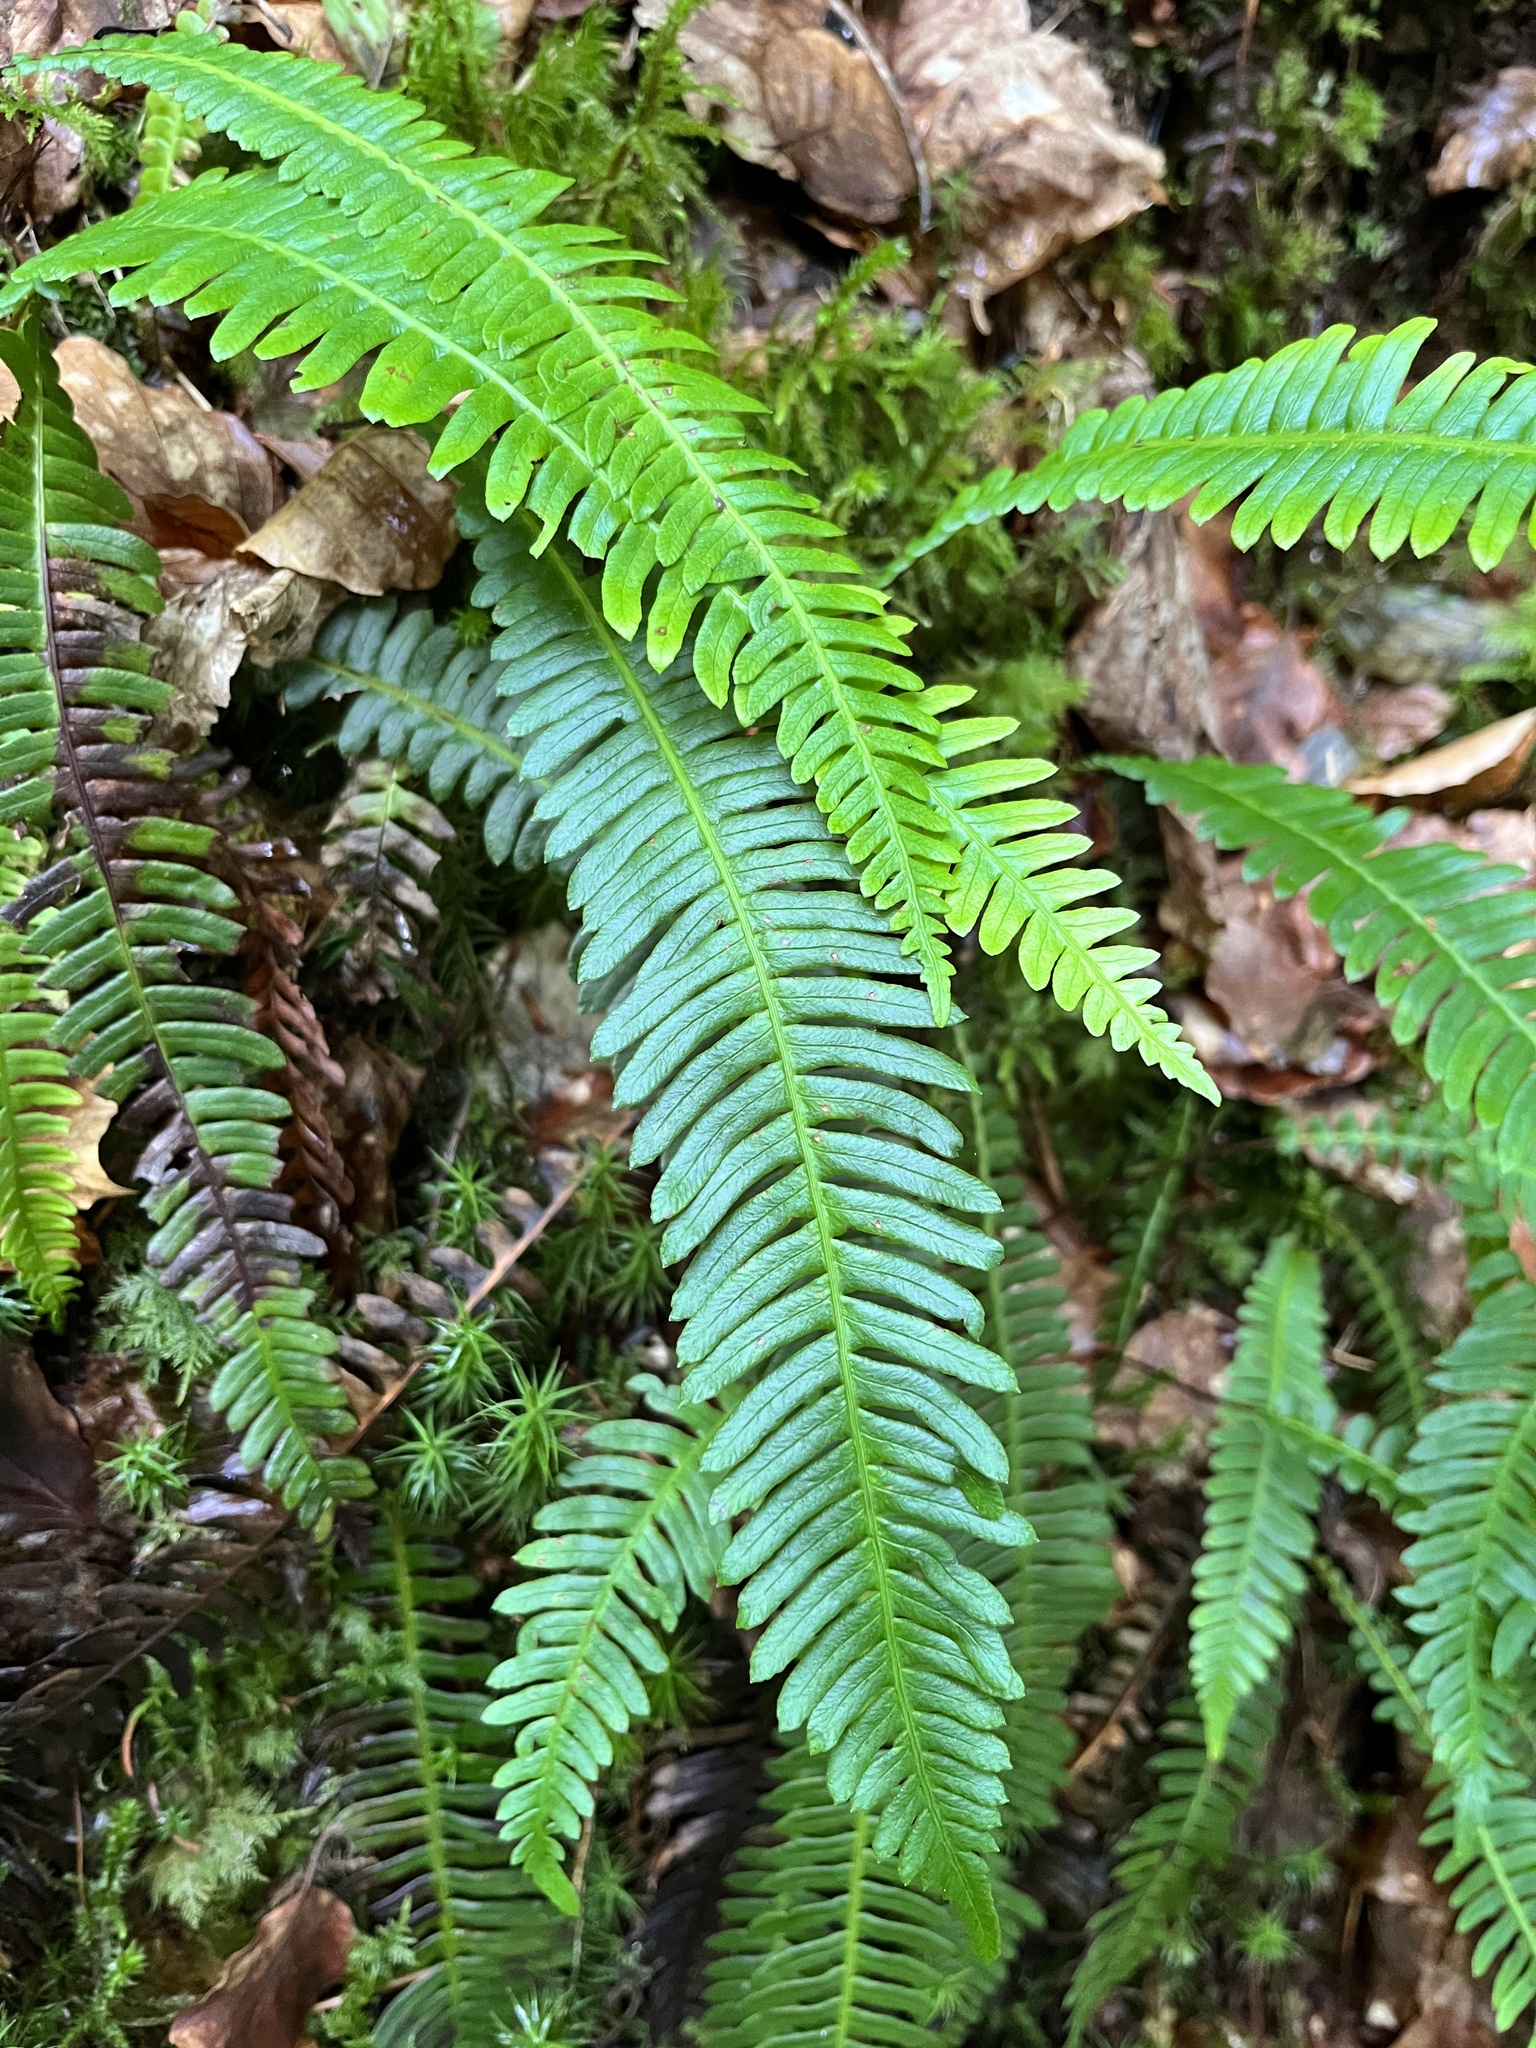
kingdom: Plantae
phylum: Tracheophyta
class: Polypodiopsida
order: Polypodiales
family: Blechnaceae
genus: Struthiopteris
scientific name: Struthiopteris spicant
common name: Deer fern
